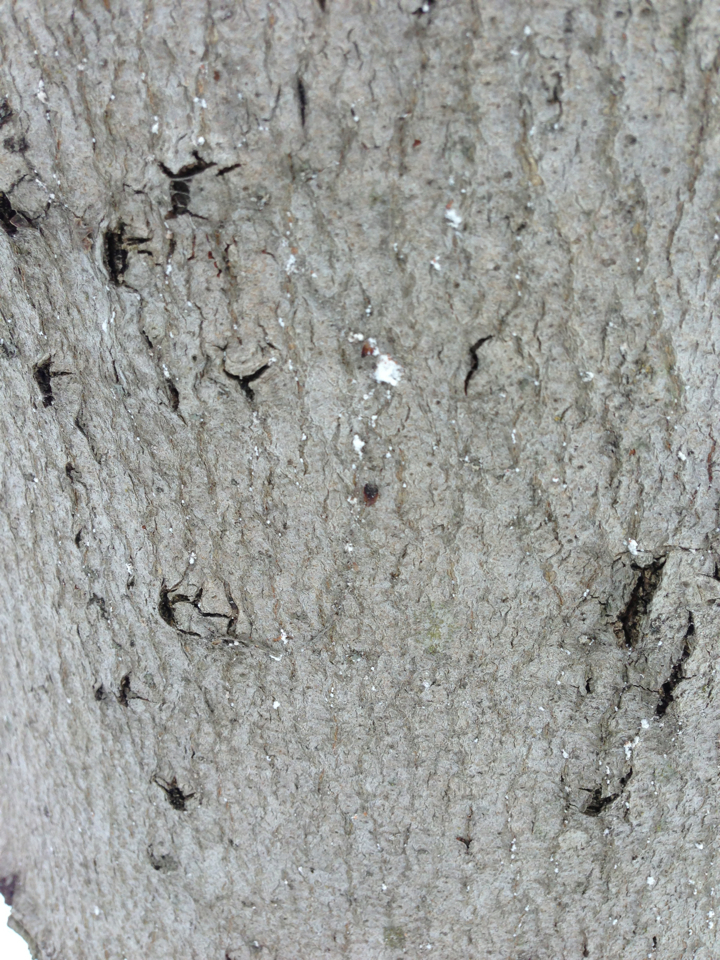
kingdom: Animalia
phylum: Arthropoda
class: Insecta
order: Hemiptera
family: Eriococcidae
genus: Cryptococcus
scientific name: Cryptococcus fagisuga
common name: Beech scale
